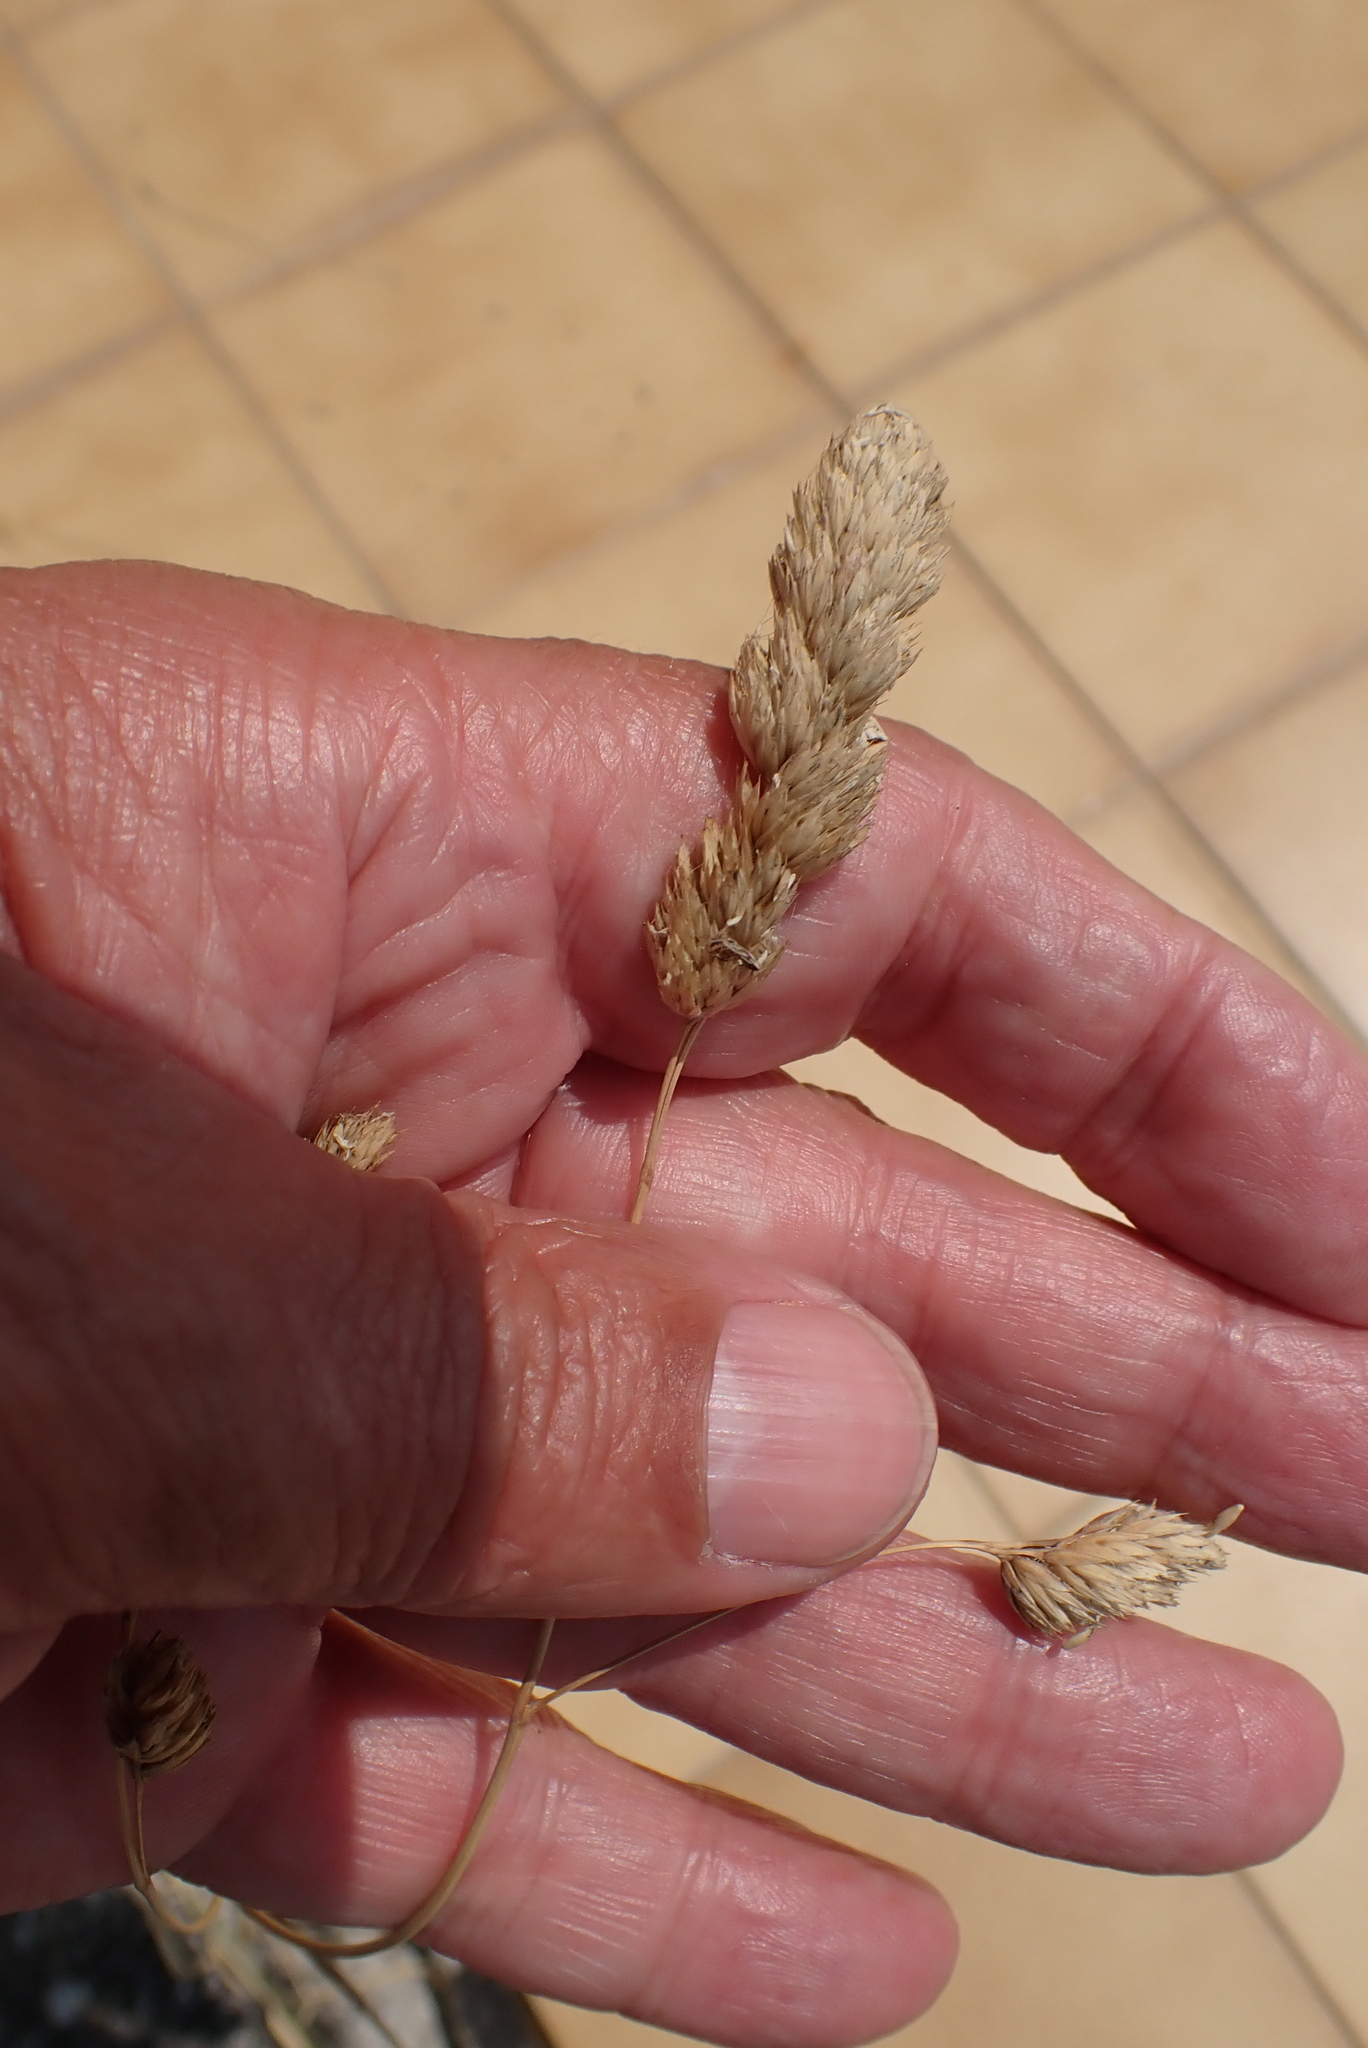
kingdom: Plantae
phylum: Tracheophyta
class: Liliopsida
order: Poales
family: Poaceae
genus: Dactylis
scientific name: Dactylis glomerata
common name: Orchardgrass
